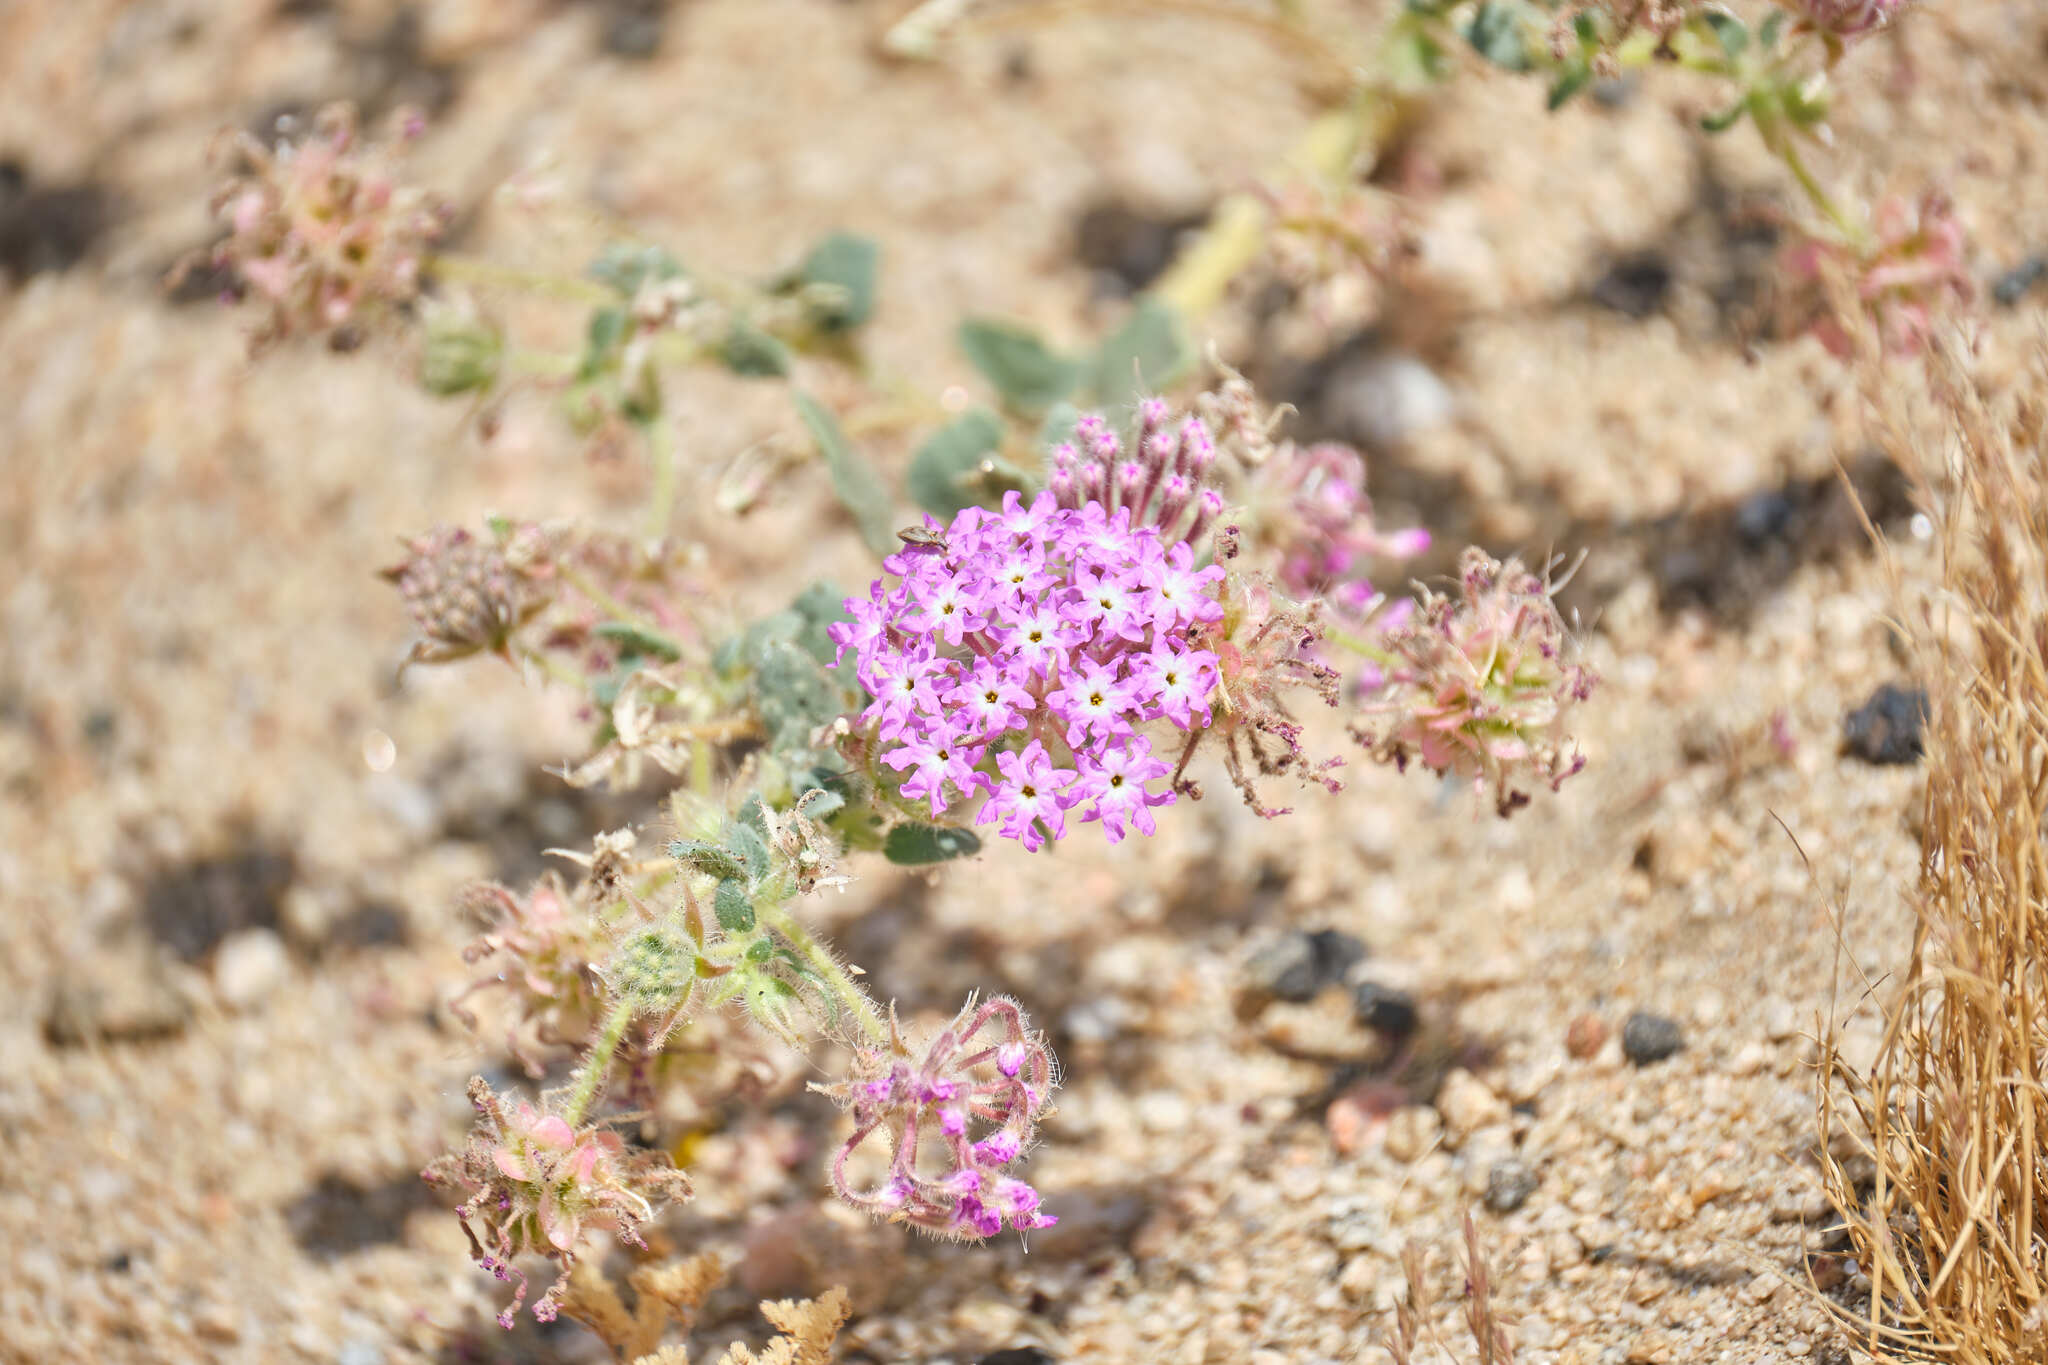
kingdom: Plantae
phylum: Tracheophyta
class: Magnoliopsida
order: Caryophyllales
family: Nyctaginaceae
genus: Abronia
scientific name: Abronia villosa
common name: Desert sand-verbena
